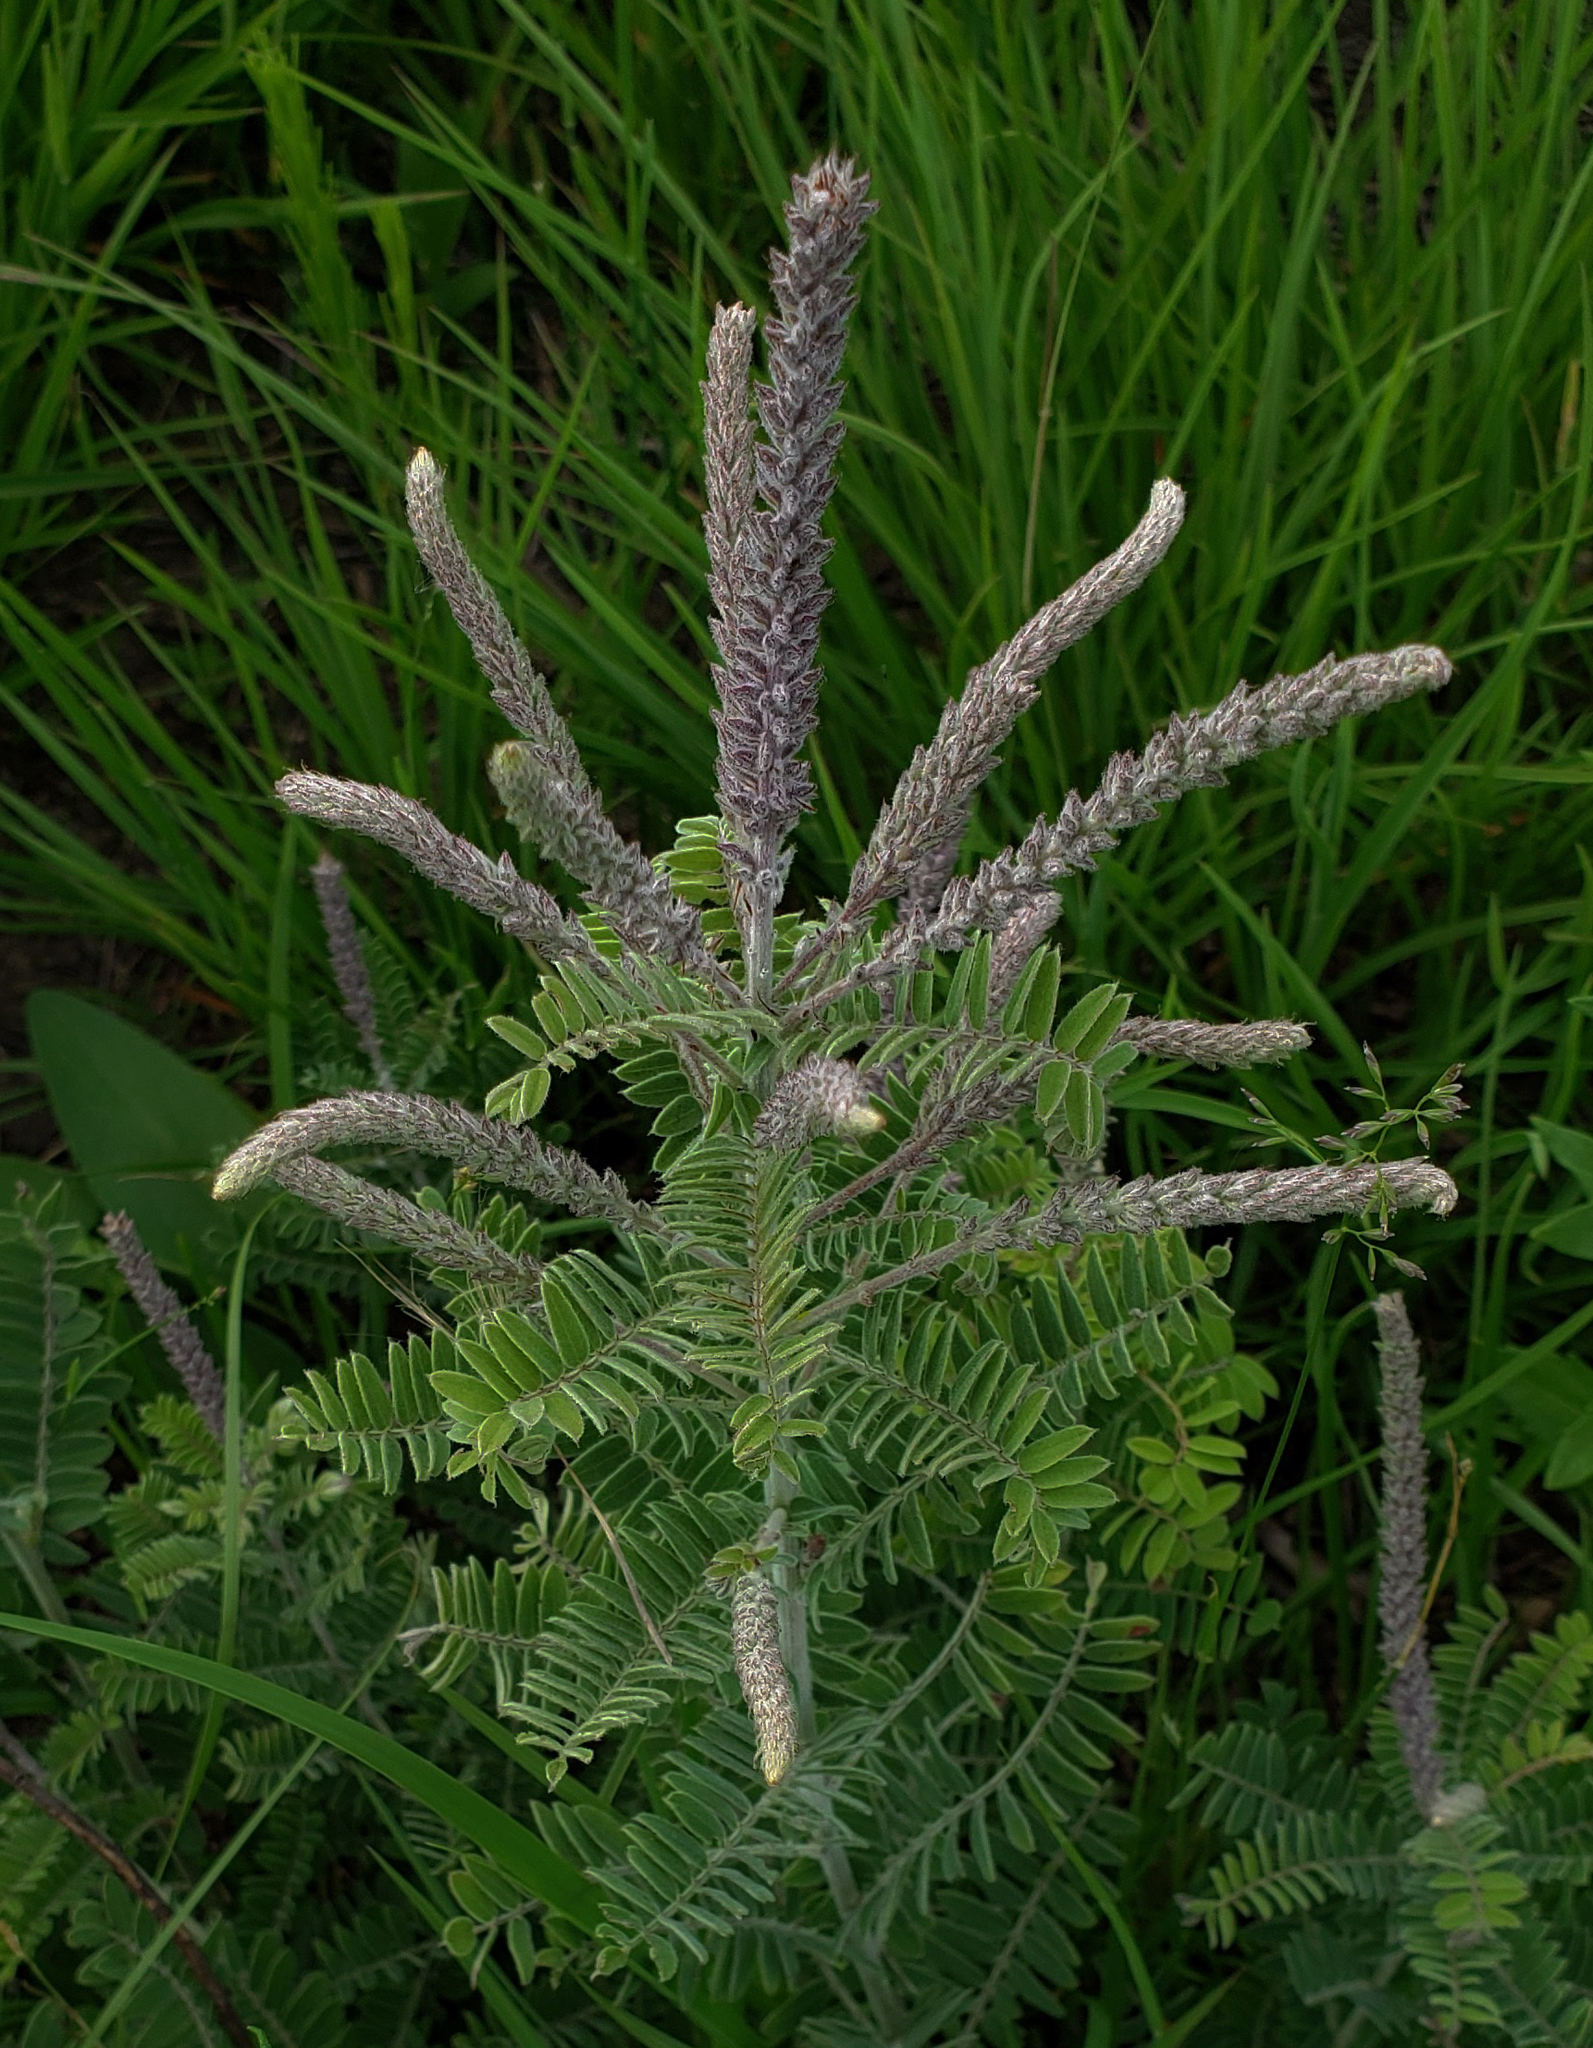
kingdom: Plantae
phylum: Tracheophyta
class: Magnoliopsida
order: Fabales
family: Fabaceae
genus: Amorpha
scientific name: Amorpha canescens
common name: Leadplant
